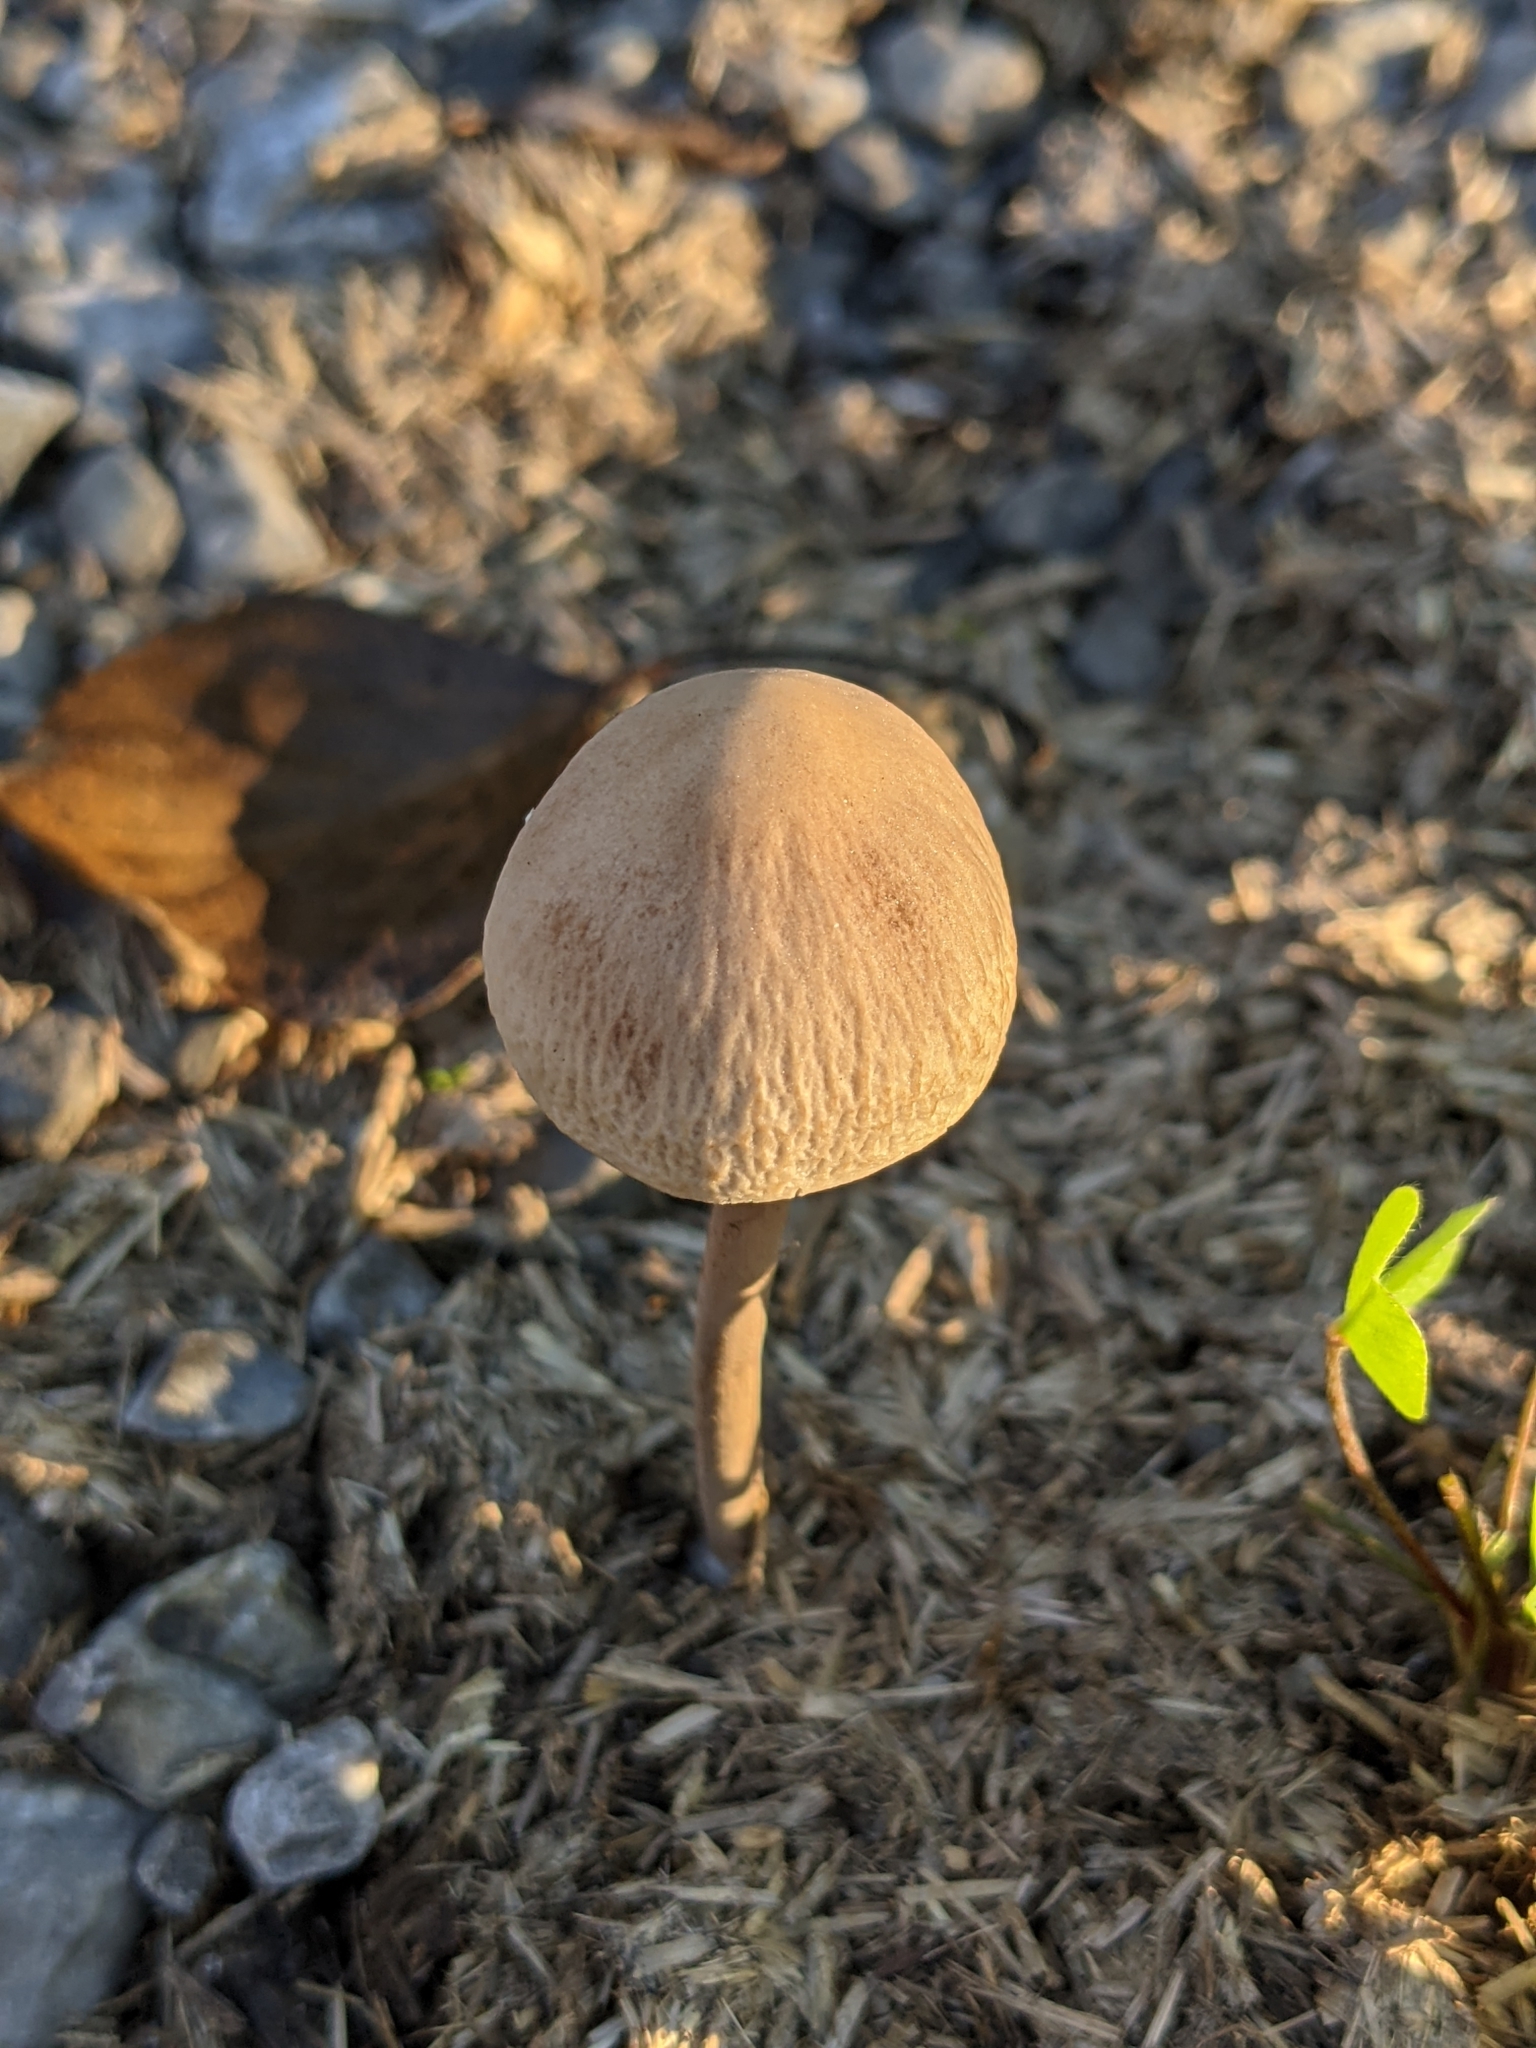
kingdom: Fungi
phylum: Basidiomycota
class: Agaricomycetes
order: Agaricales
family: Bolbitiaceae
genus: Panaeolus
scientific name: Panaeolus semiovatus
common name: Shiny mottlegill
